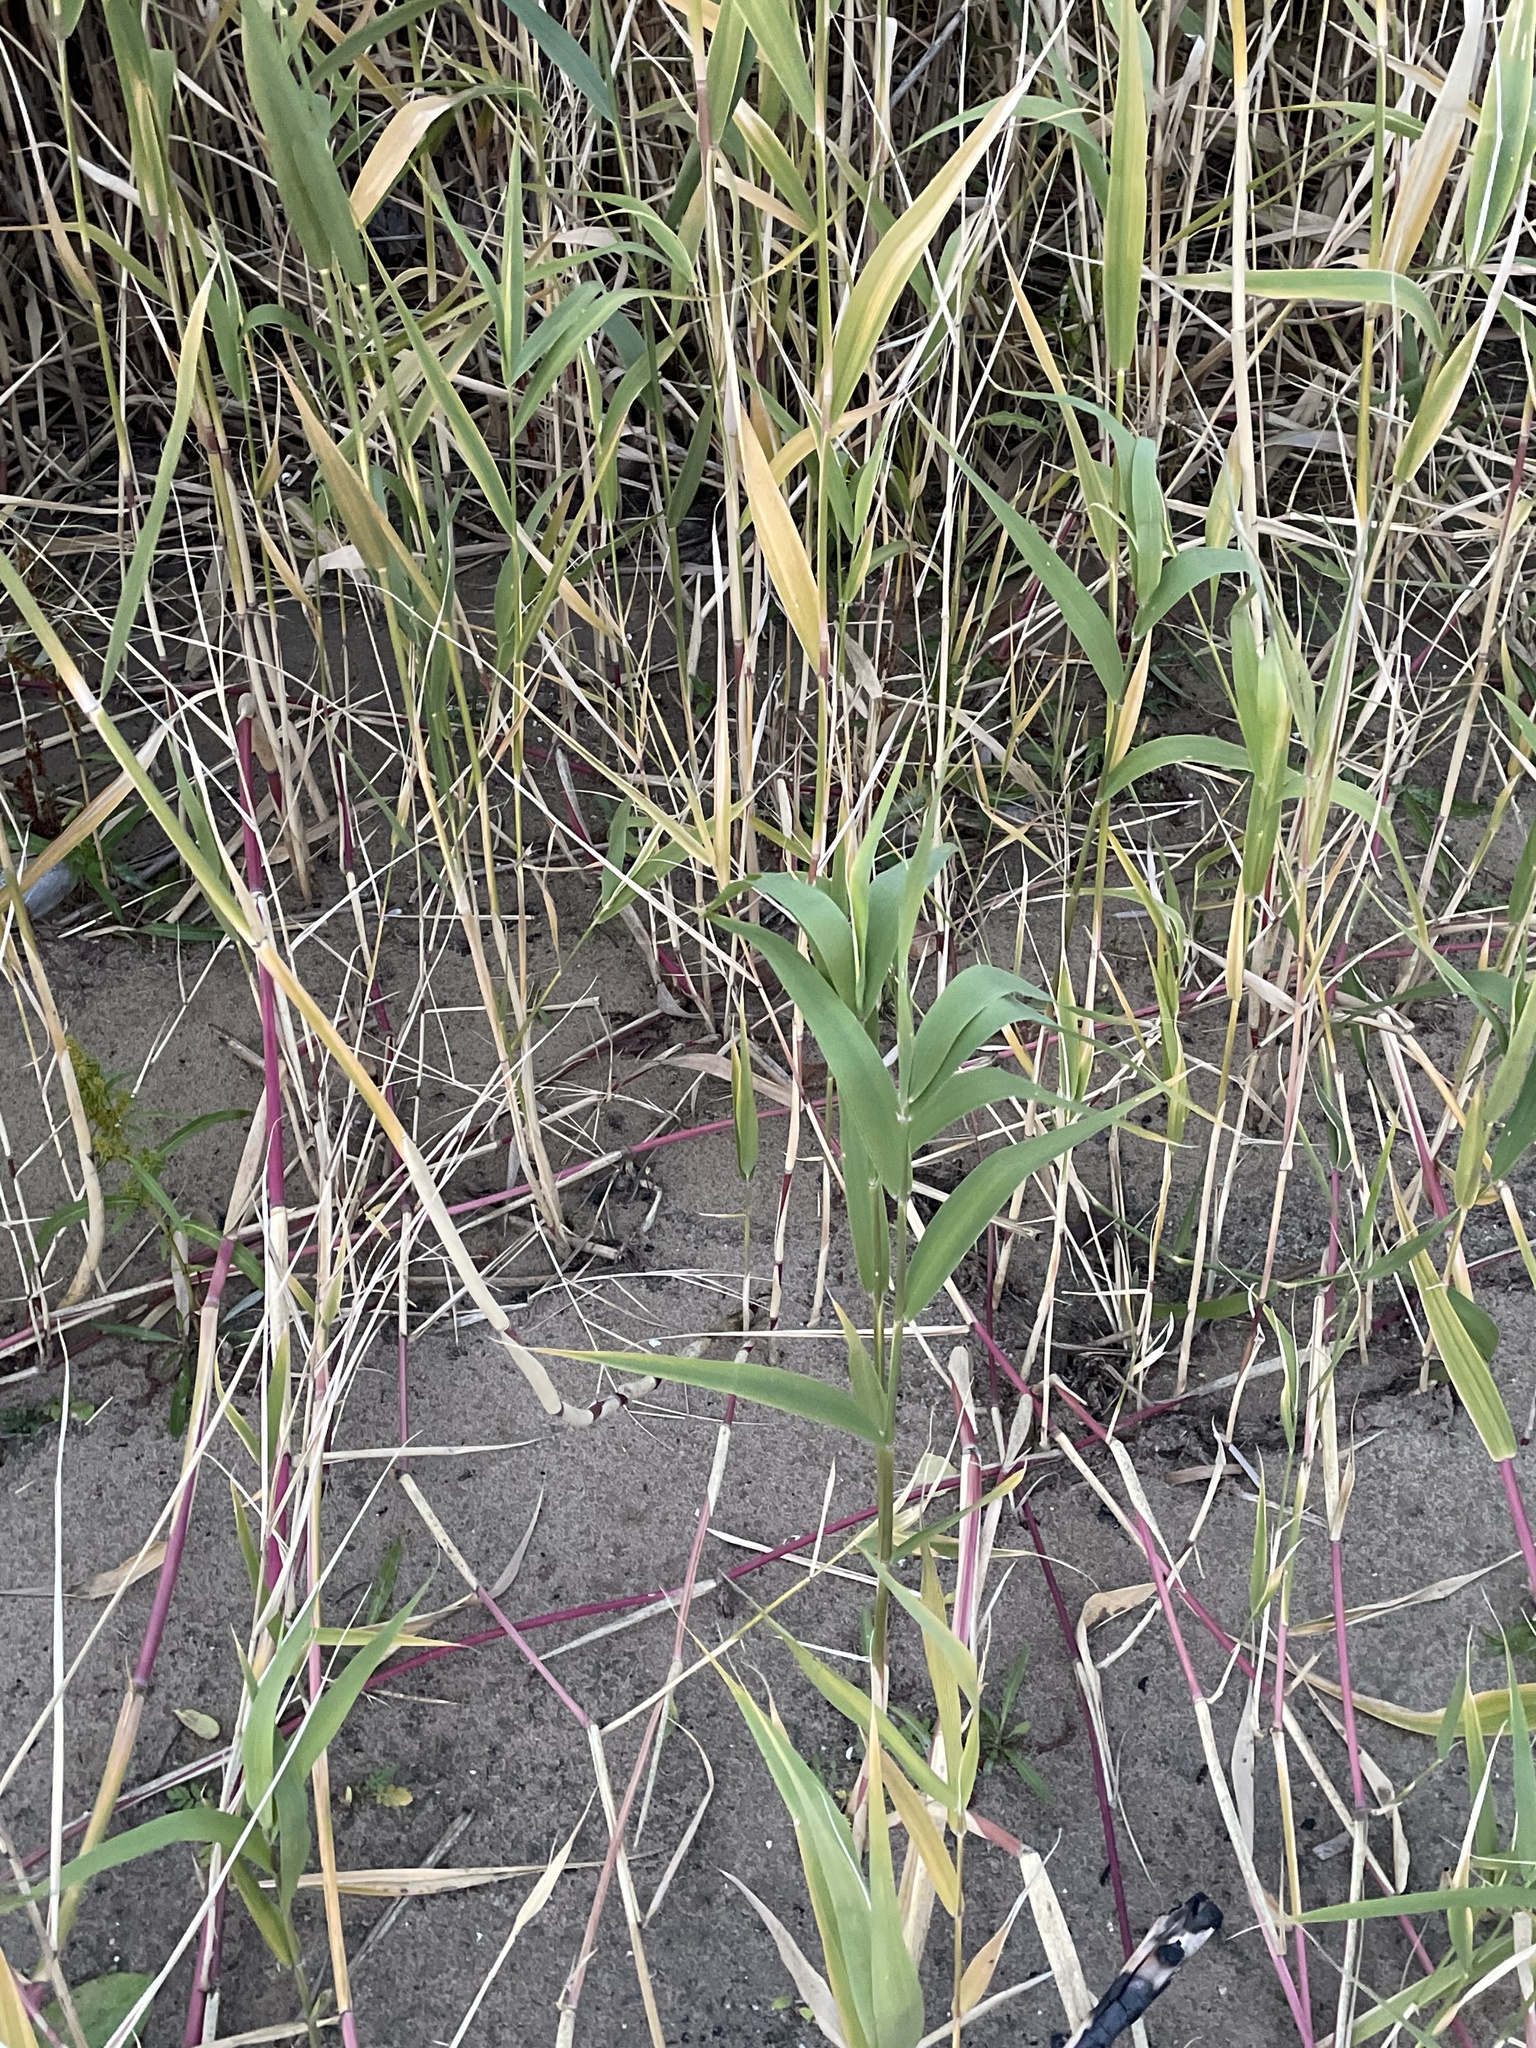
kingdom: Plantae
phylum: Tracheophyta
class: Liliopsida
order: Poales
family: Poaceae
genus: Phragmites
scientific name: Phragmites australis
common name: Common reed
